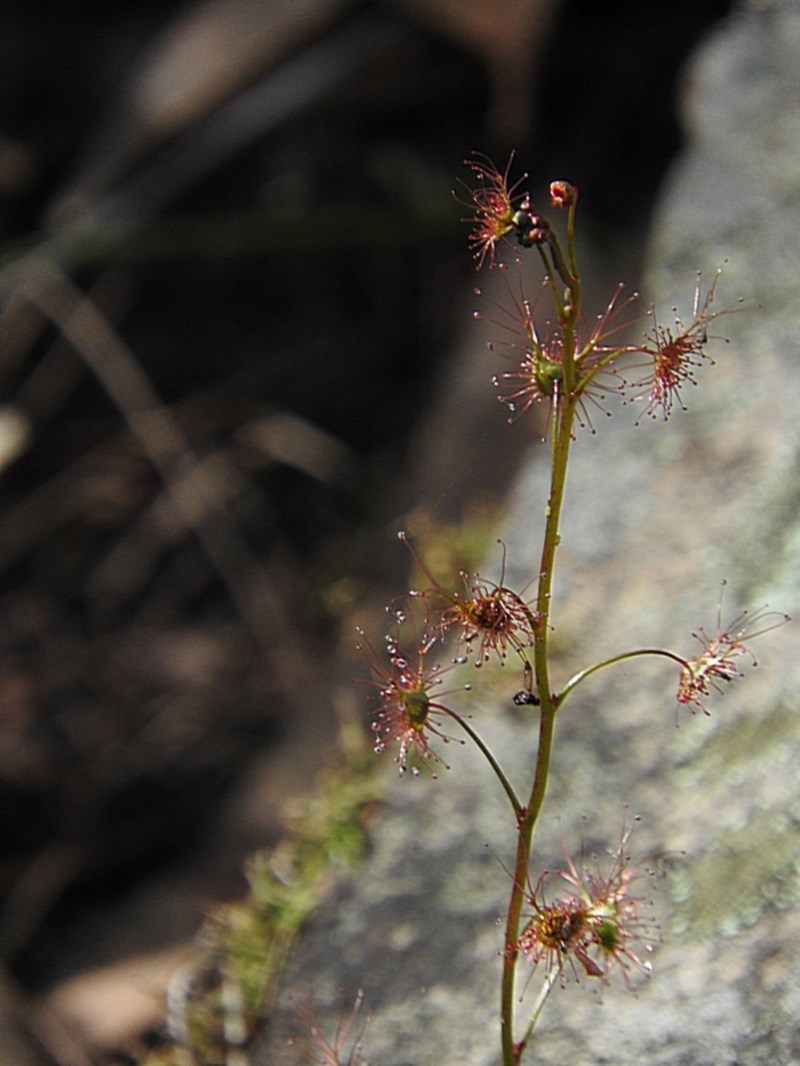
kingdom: Plantae
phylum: Tracheophyta
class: Magnoliopsida
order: Caryophyllales
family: Droseraceae
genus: Drosera
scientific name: Drosera peltata
